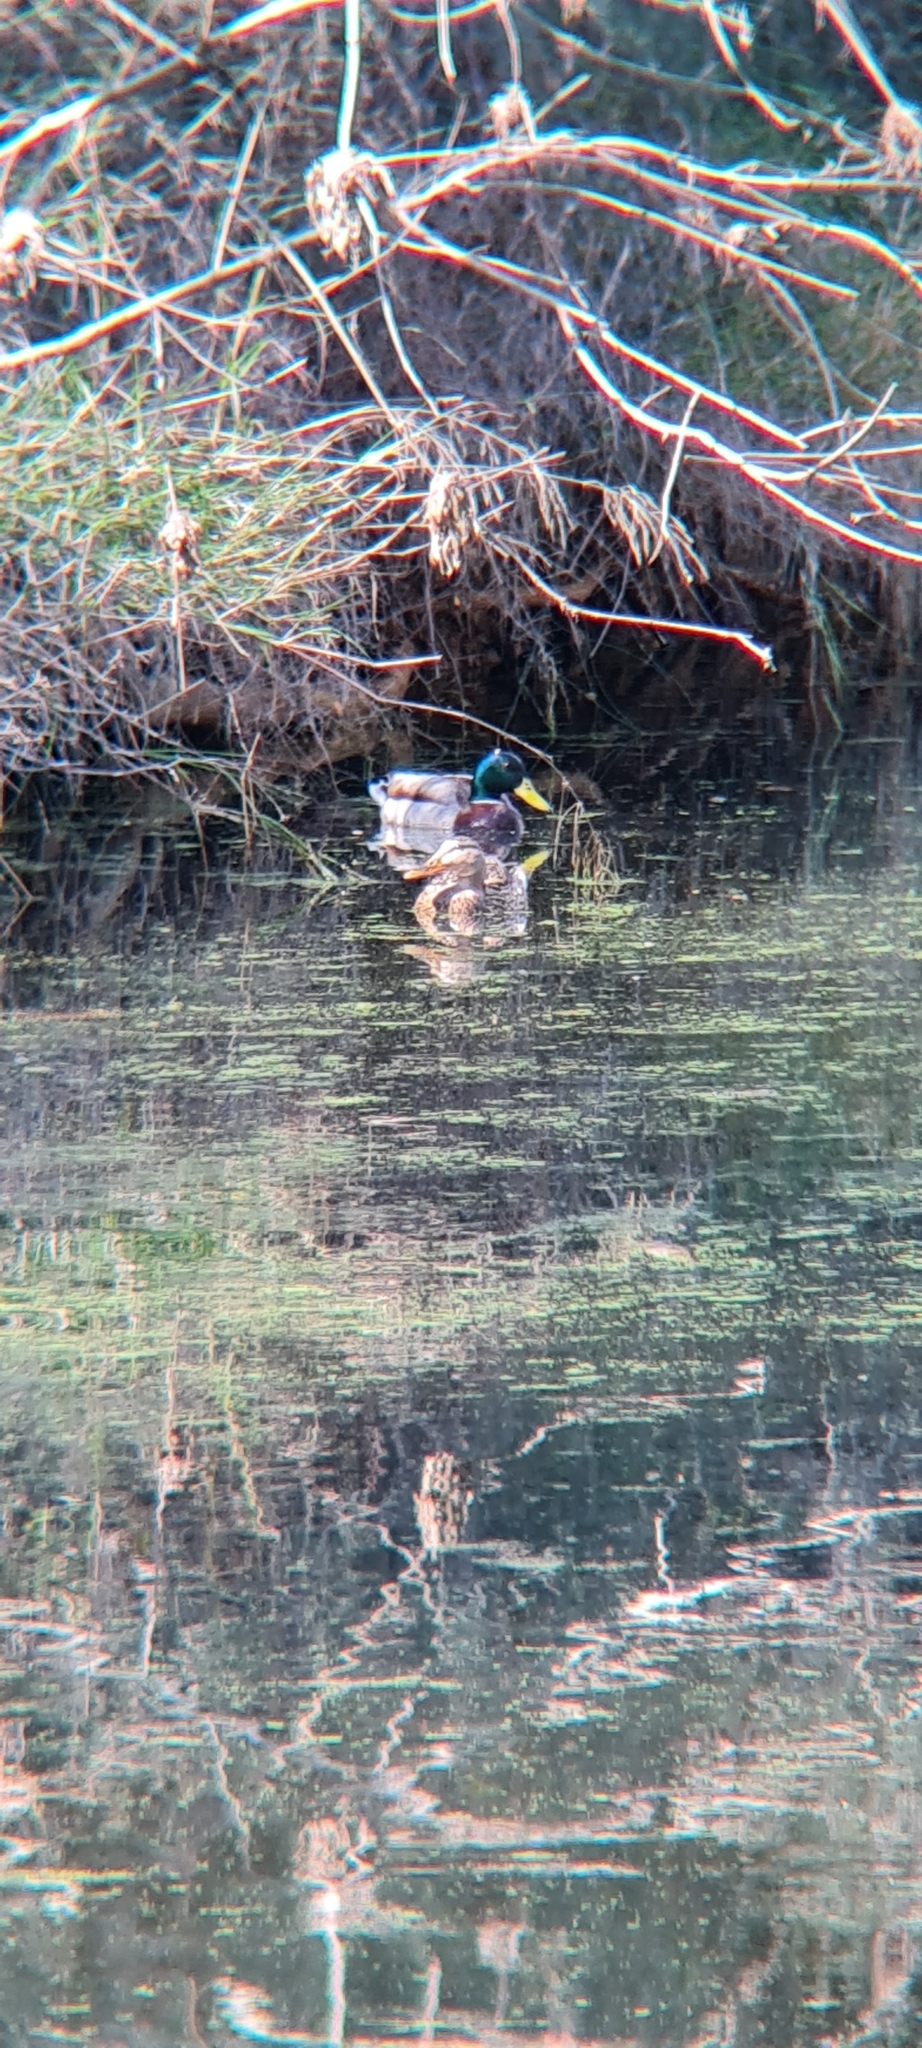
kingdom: Animalia
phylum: Chordata
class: Aves
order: Anseriformes
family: Anatidae
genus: Anas
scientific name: Anas platyrhynchos
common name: Mallard
